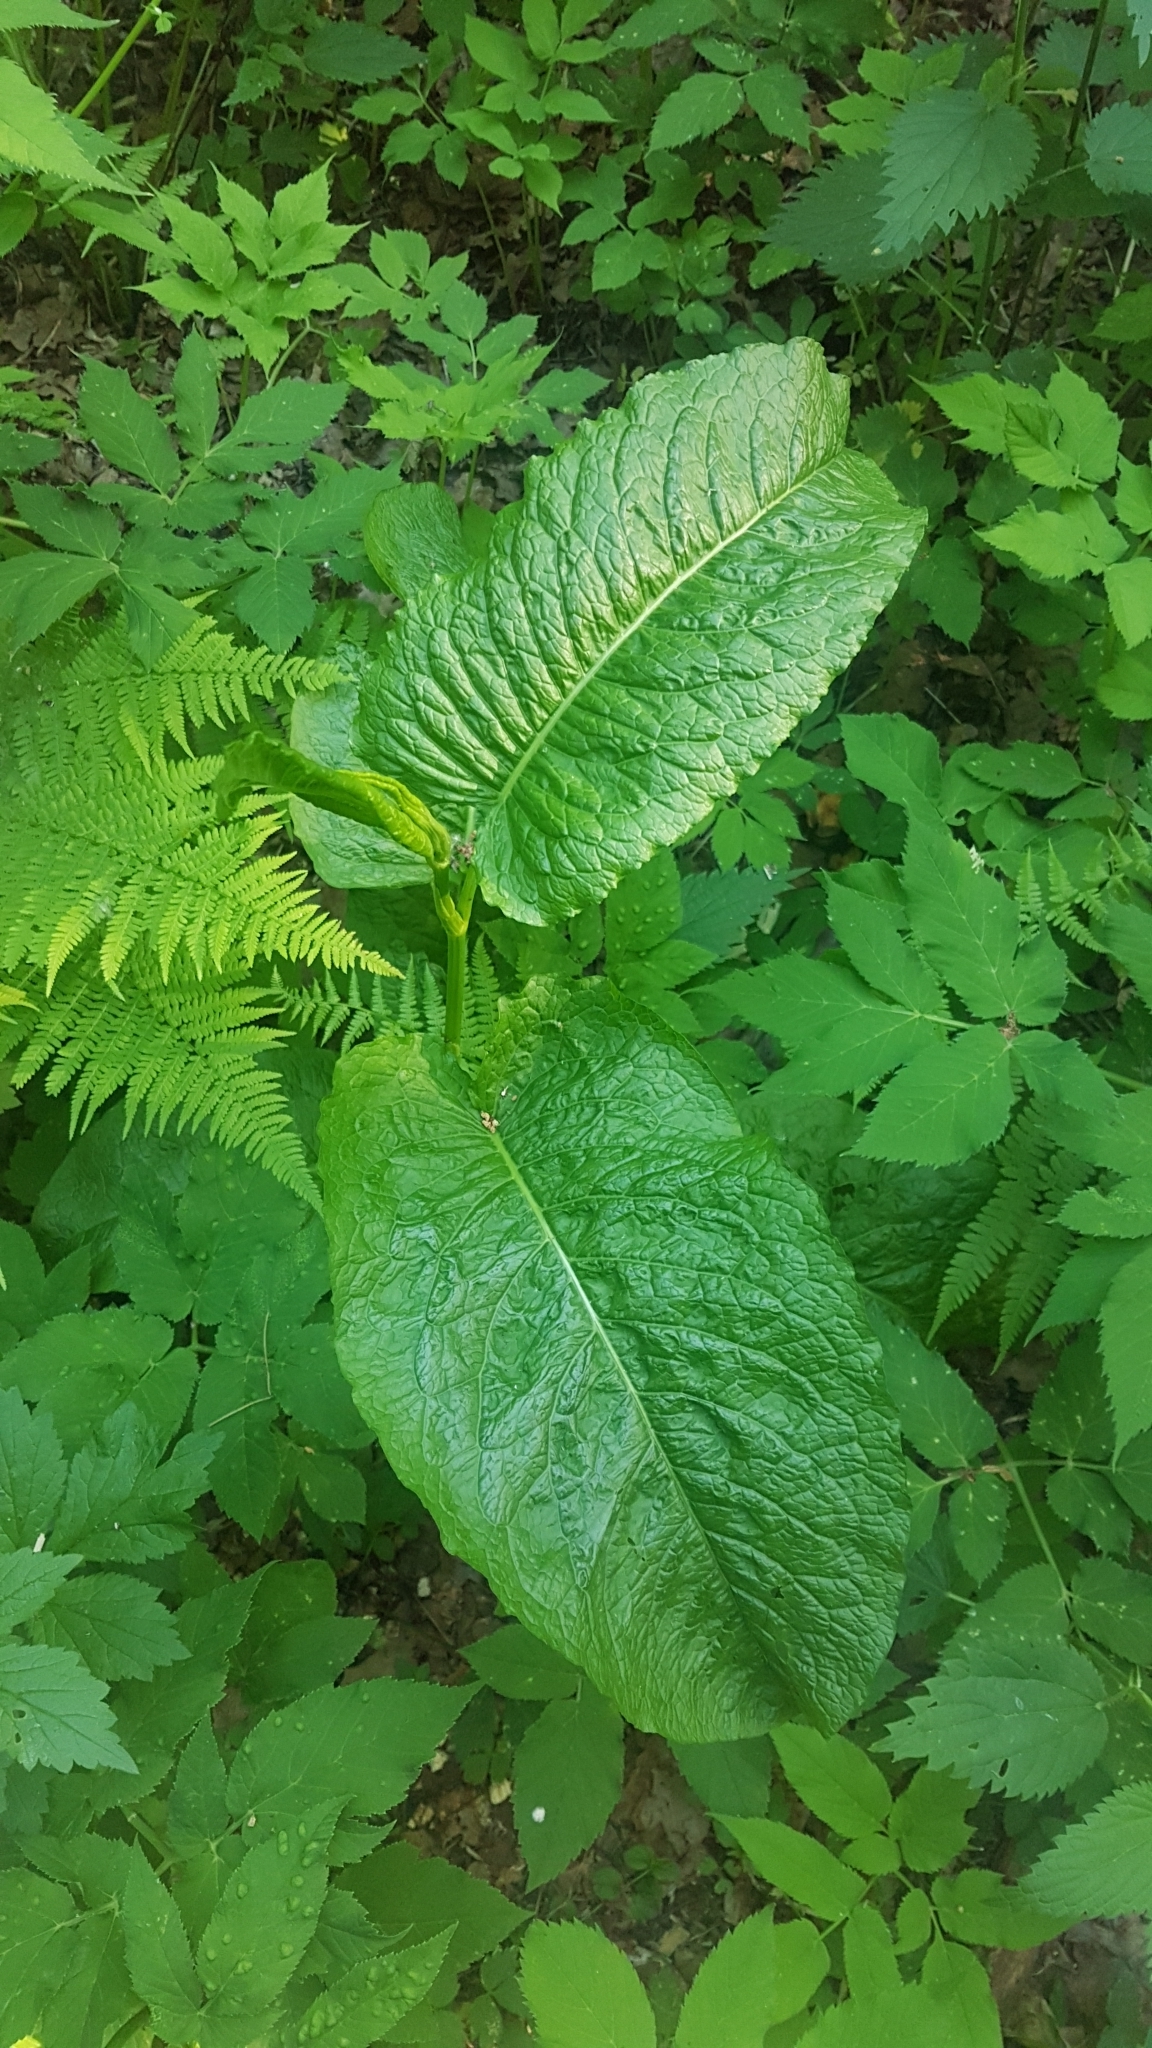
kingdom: Plantae
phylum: Tracheophyta
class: Magnoliopsida
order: Caryophyllales
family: Polygonaceae
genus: Rumex
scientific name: Rumex obtusifolius
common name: Bitter dock
